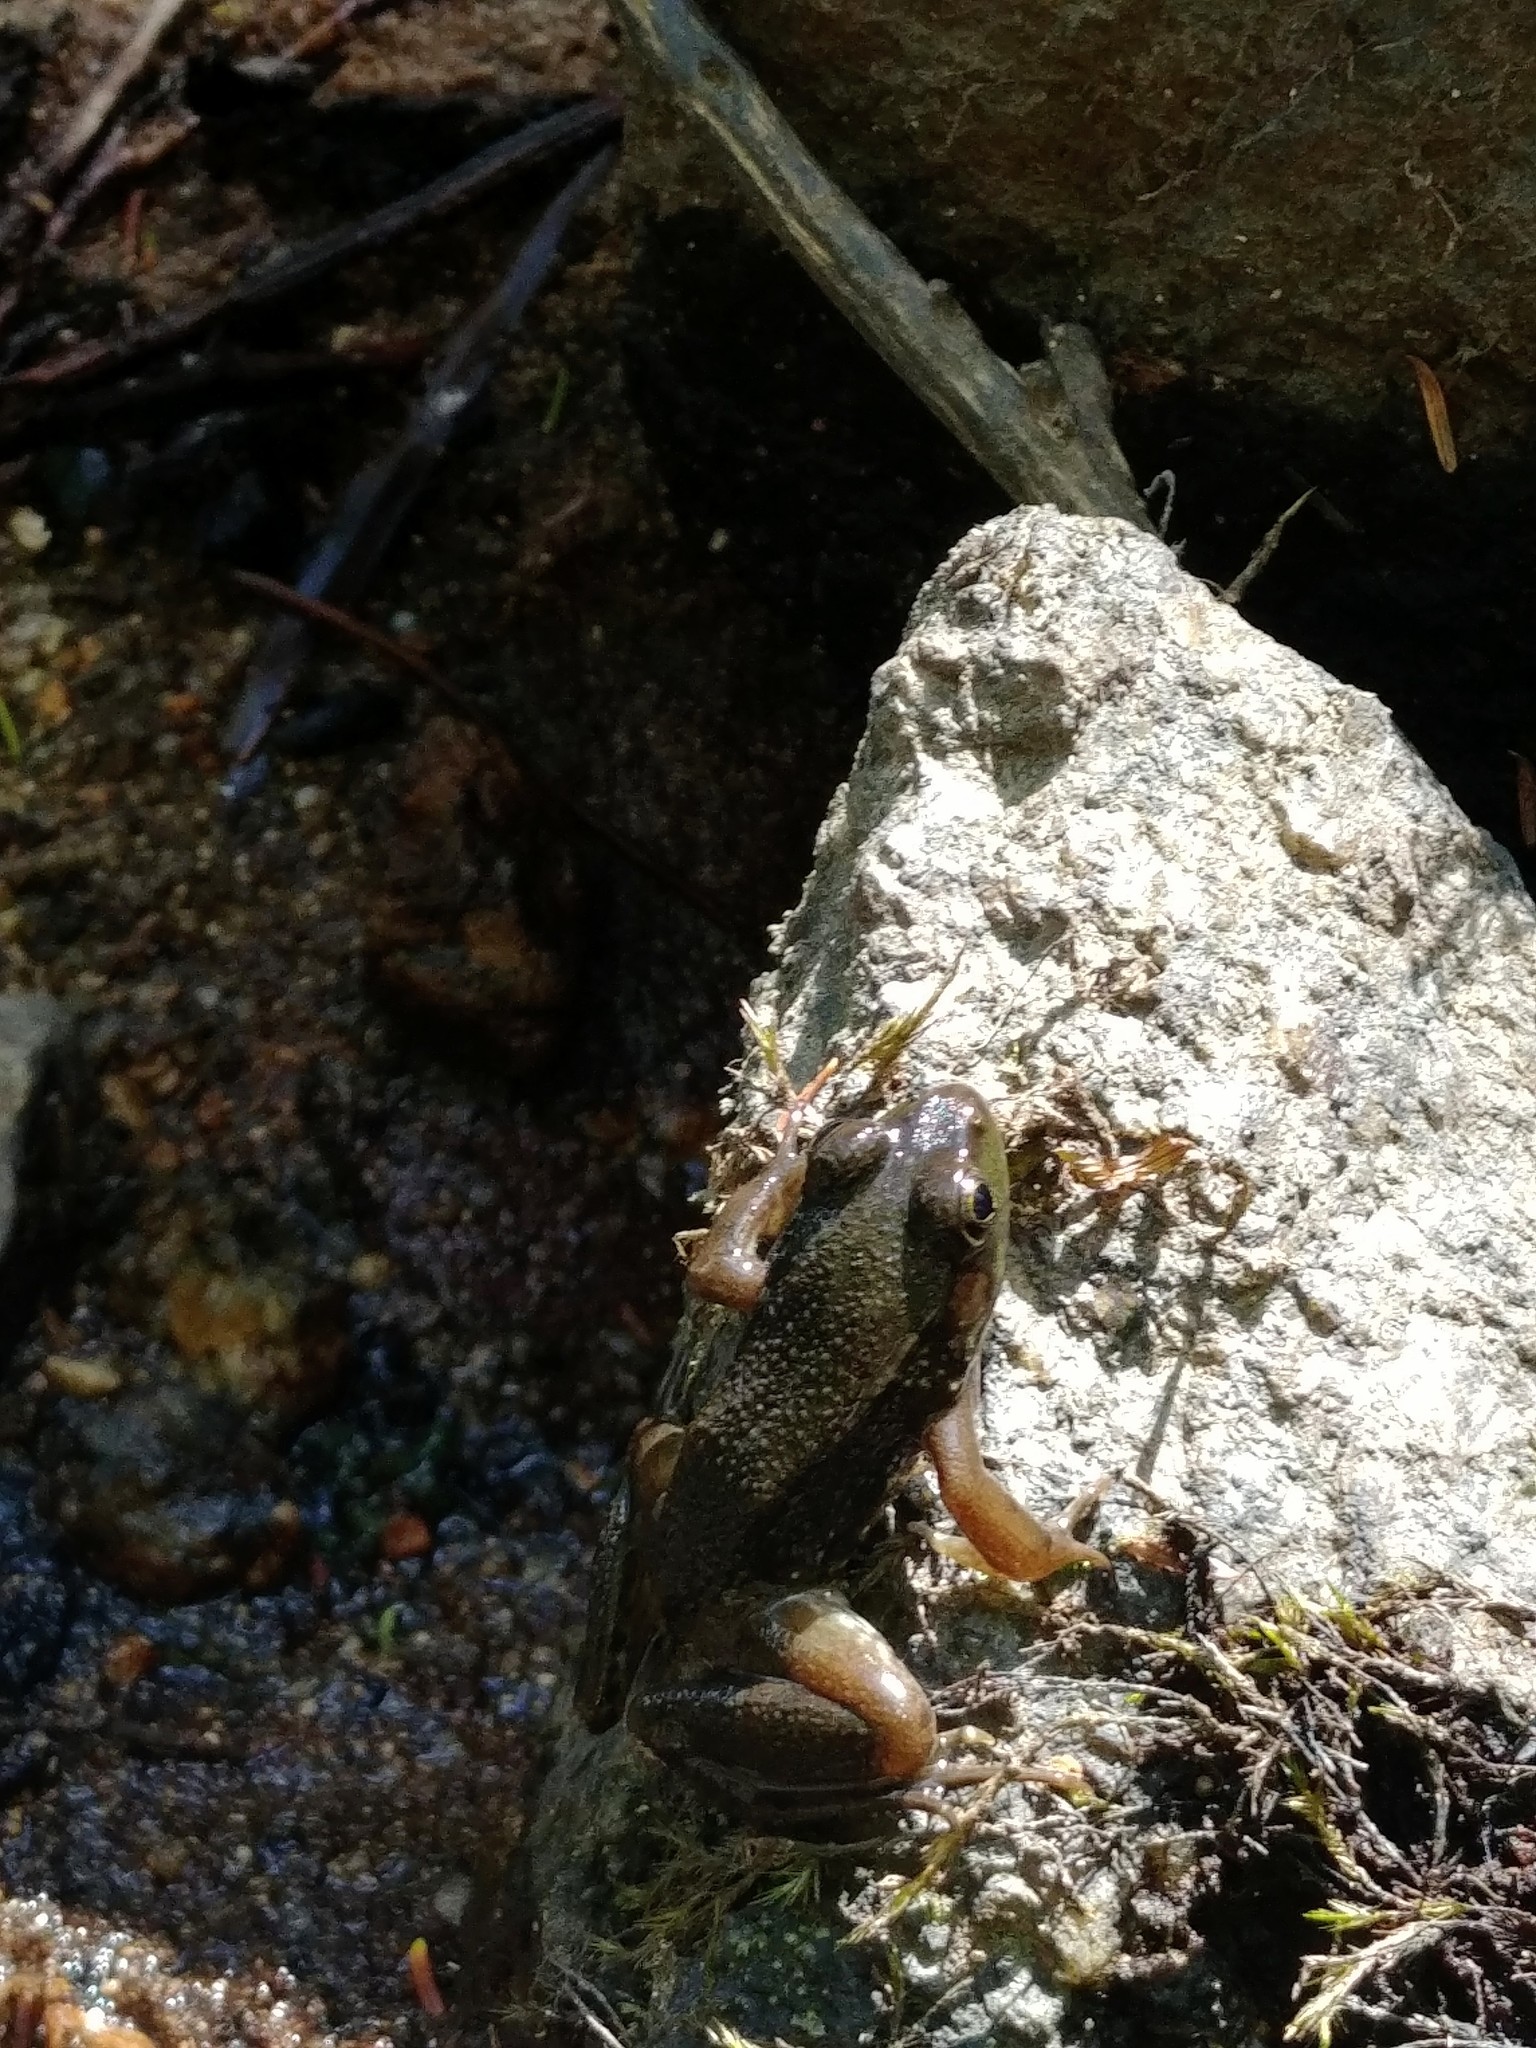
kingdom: Animalia
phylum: Chordata
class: Amphibia
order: Anura
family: Ranidae
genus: Lithobates
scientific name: Lithobates clamitans
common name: Green frog
